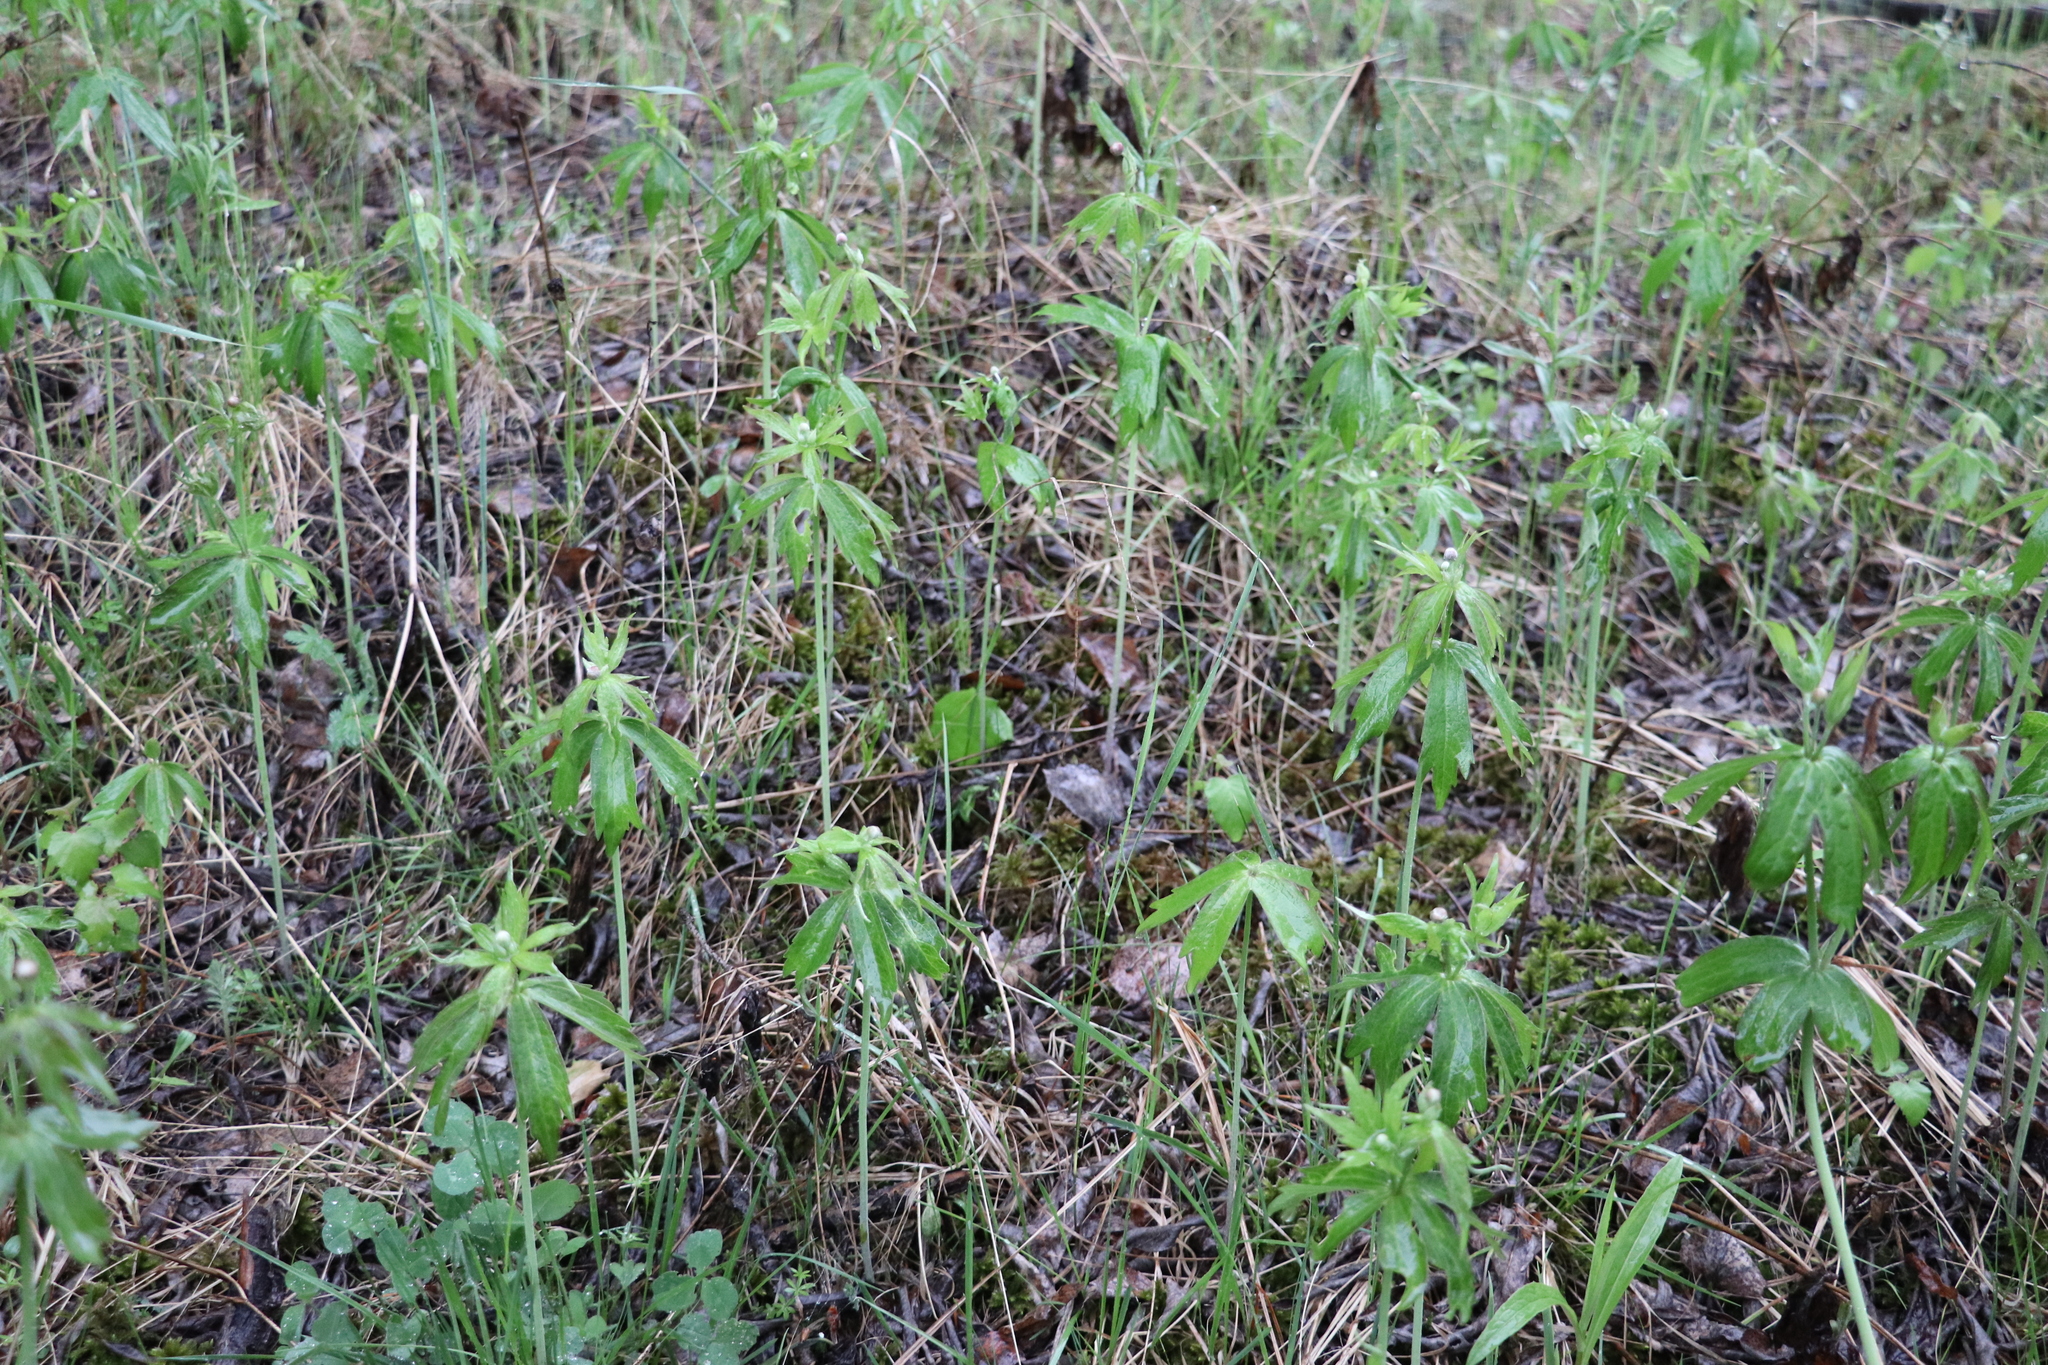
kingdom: Plantae
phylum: Tracheophyta
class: Magnoliopsida
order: Ranunculales
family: Ranunculaceae
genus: Anemonastrum
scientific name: Anemonastrum dichotomum
